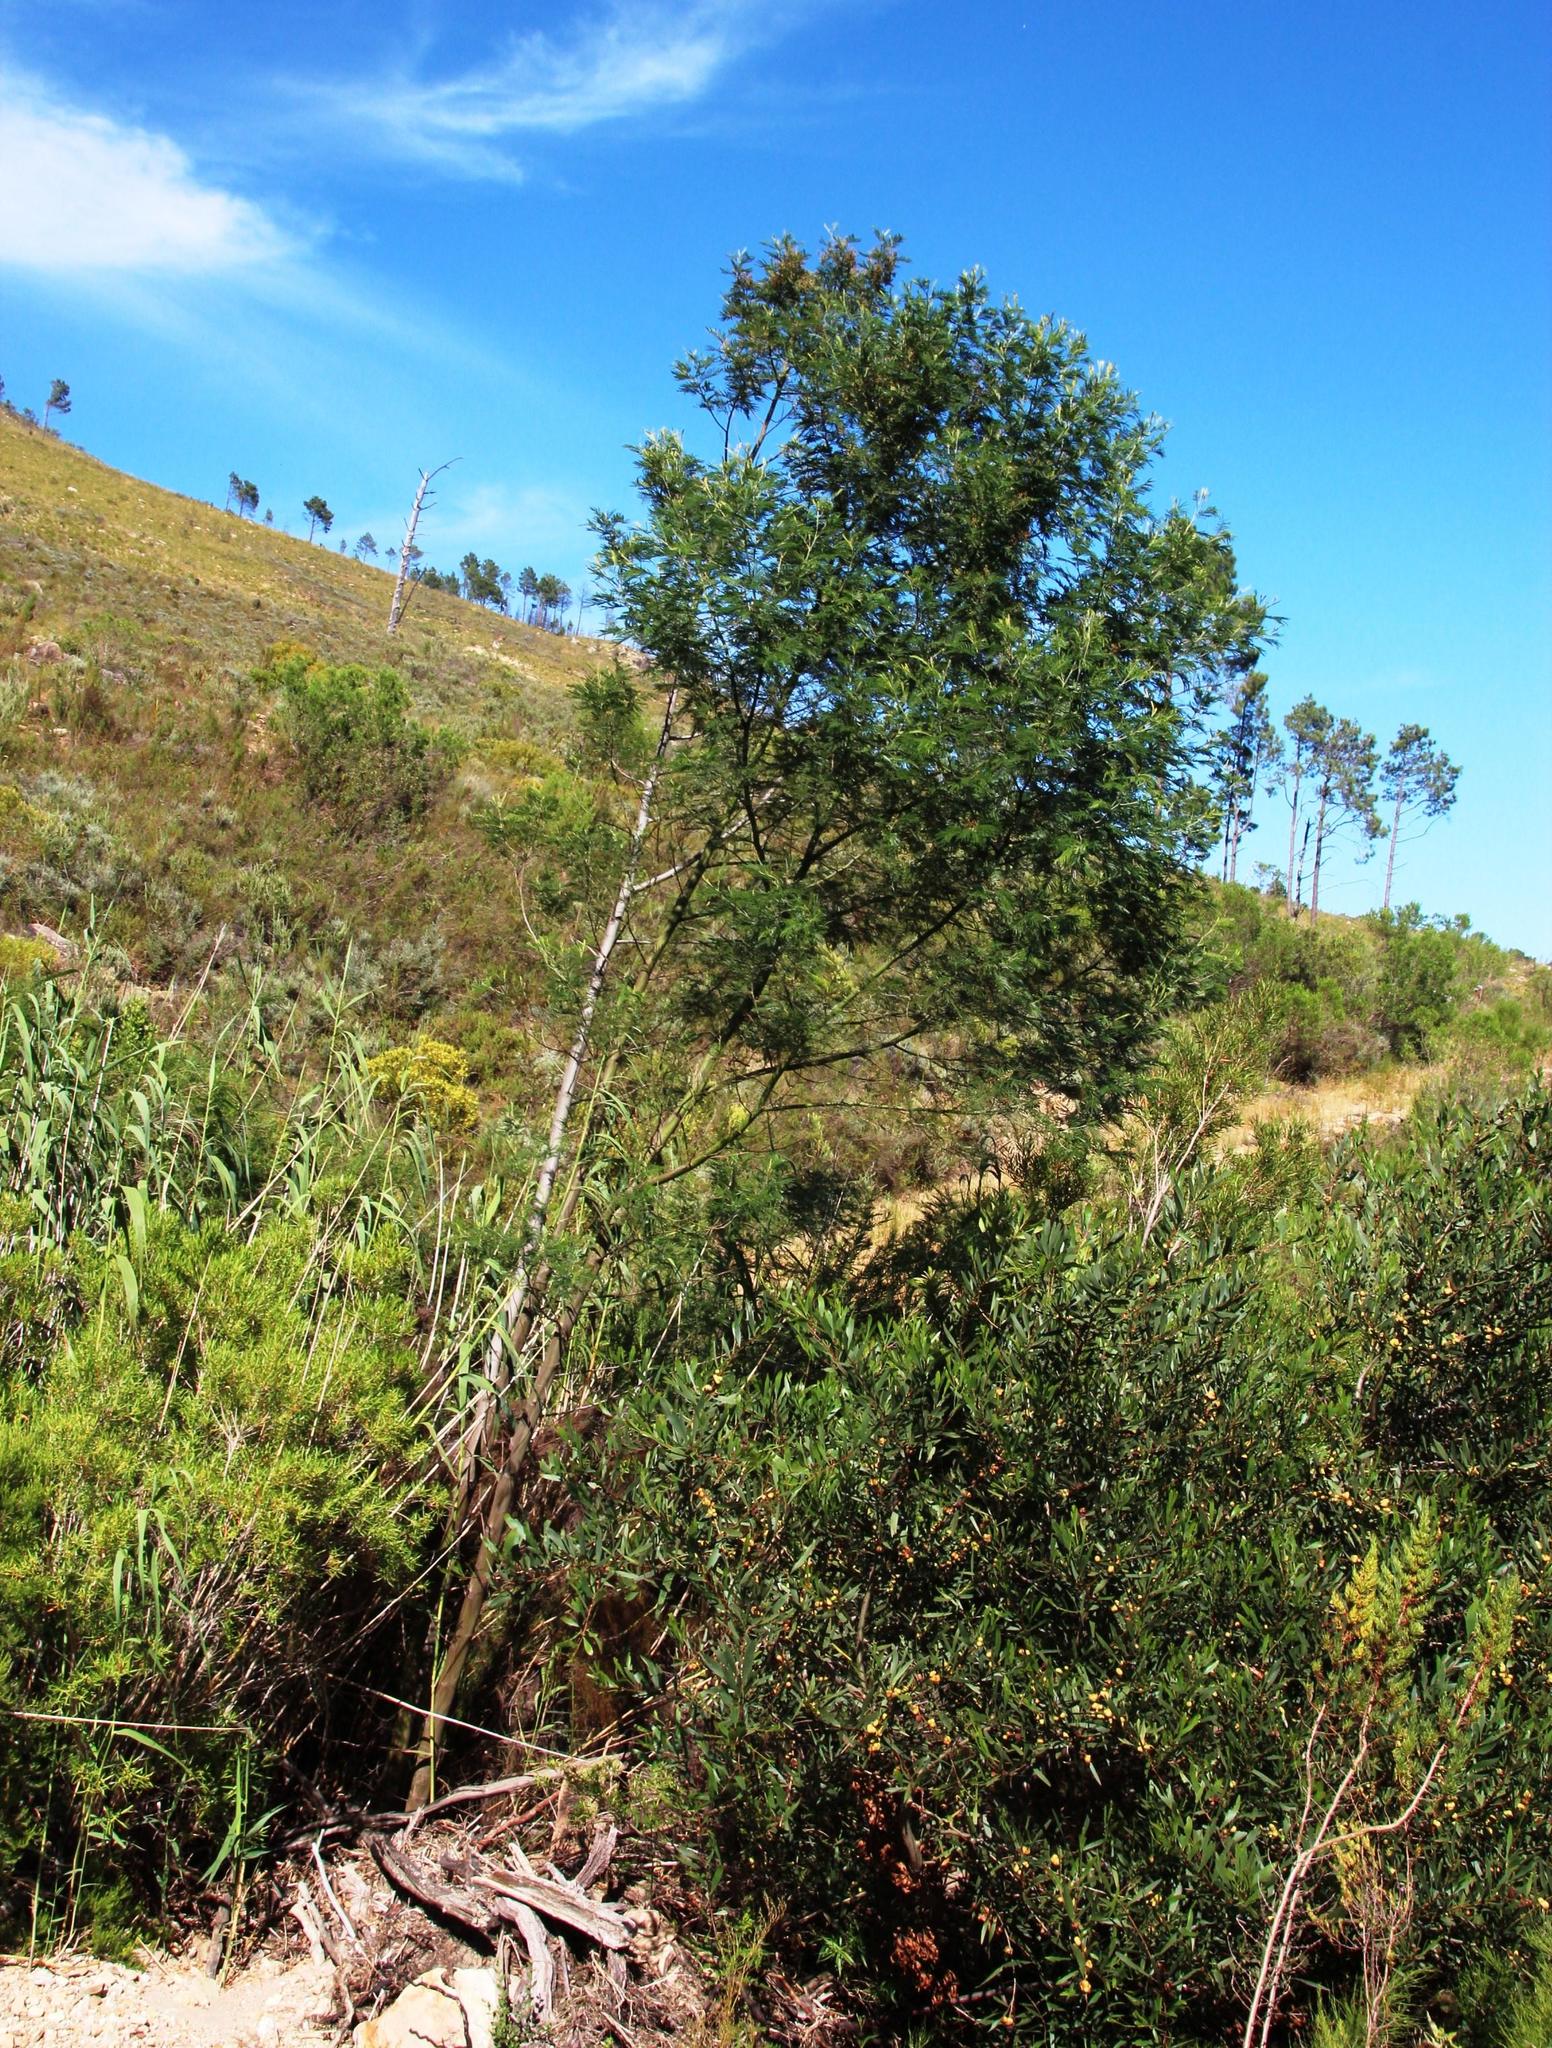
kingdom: Plantae
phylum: Tracheophyta
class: Magnoliopsida
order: Fabales
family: Fabaceae
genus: Acacia
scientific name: Acacia mearnsii
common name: Black wattle
